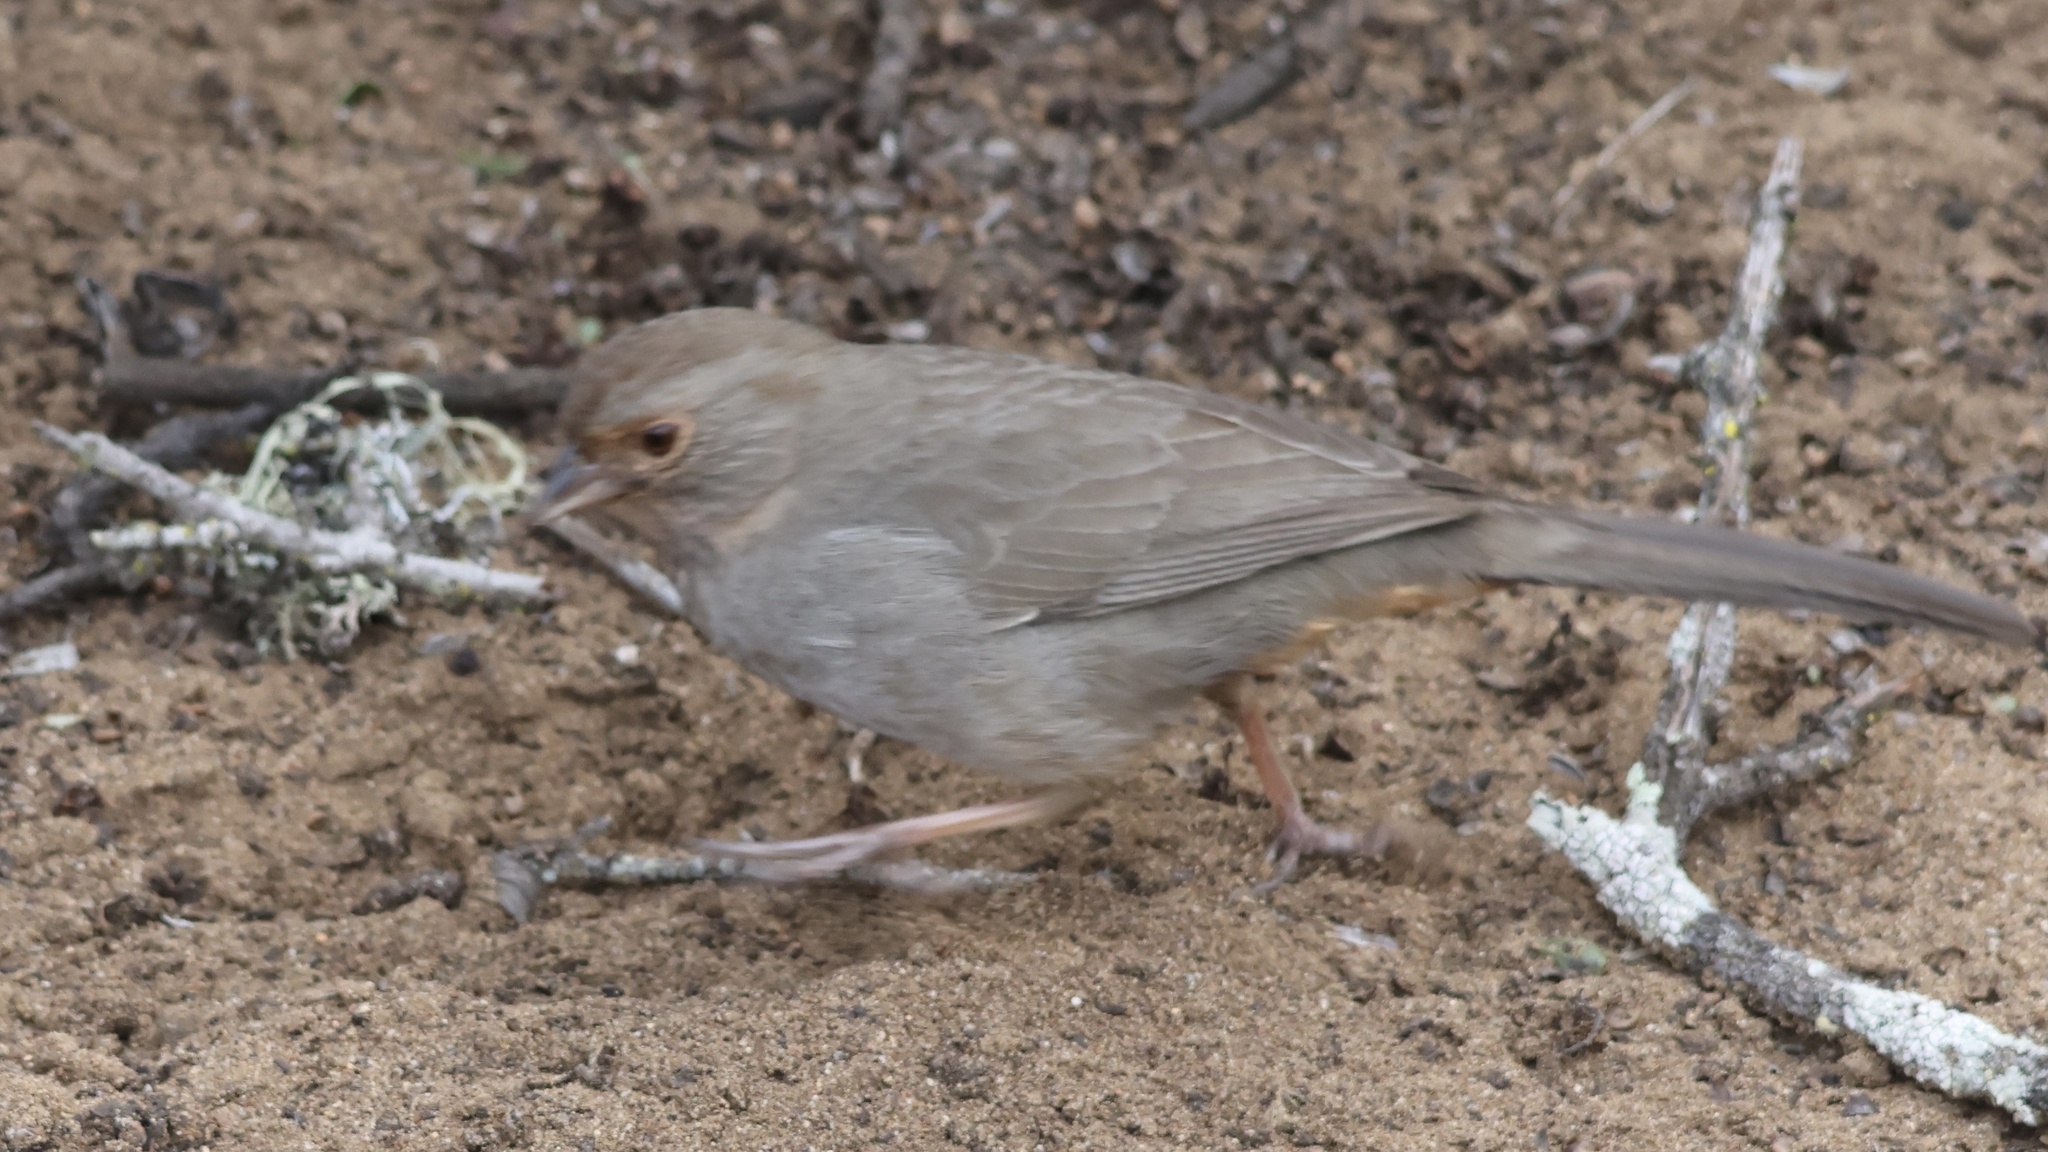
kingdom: Animalia
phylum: Chordata
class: Aves
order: Passeriformes
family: Passerellidae
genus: Melozone
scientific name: Melozone crissalis
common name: California towhee
